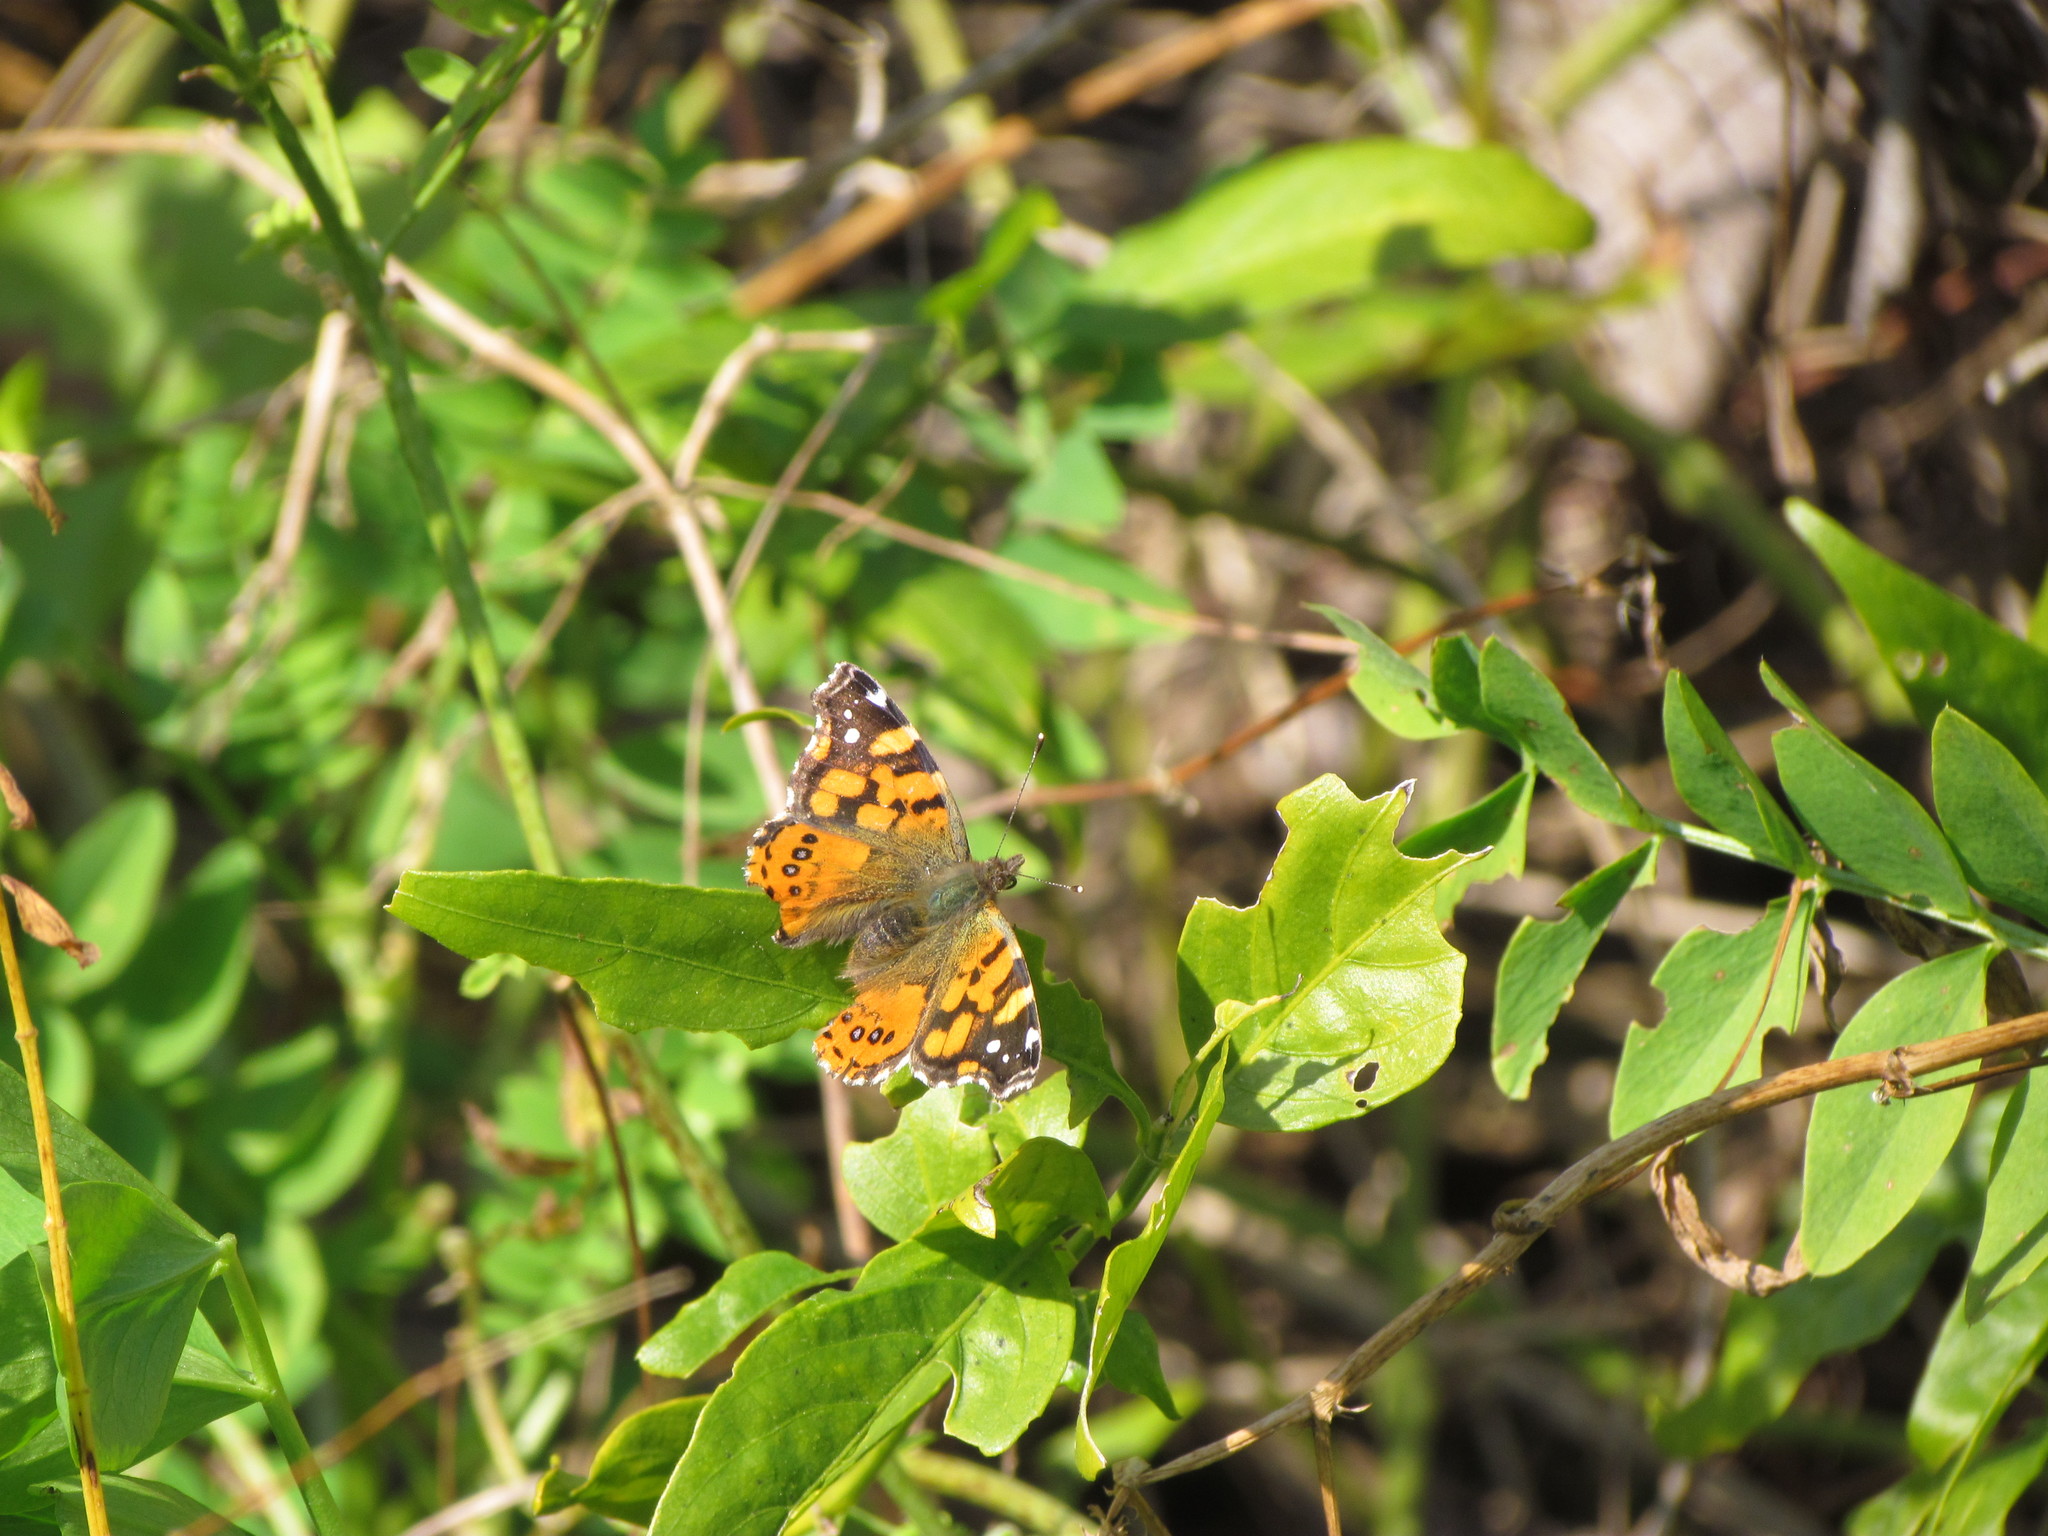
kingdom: Animalia
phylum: Arthropoda
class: Insecta
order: Lepidoptera
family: Nymphalidae
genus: Vanessa
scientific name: Vanessa carye
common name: Subtropical lady
